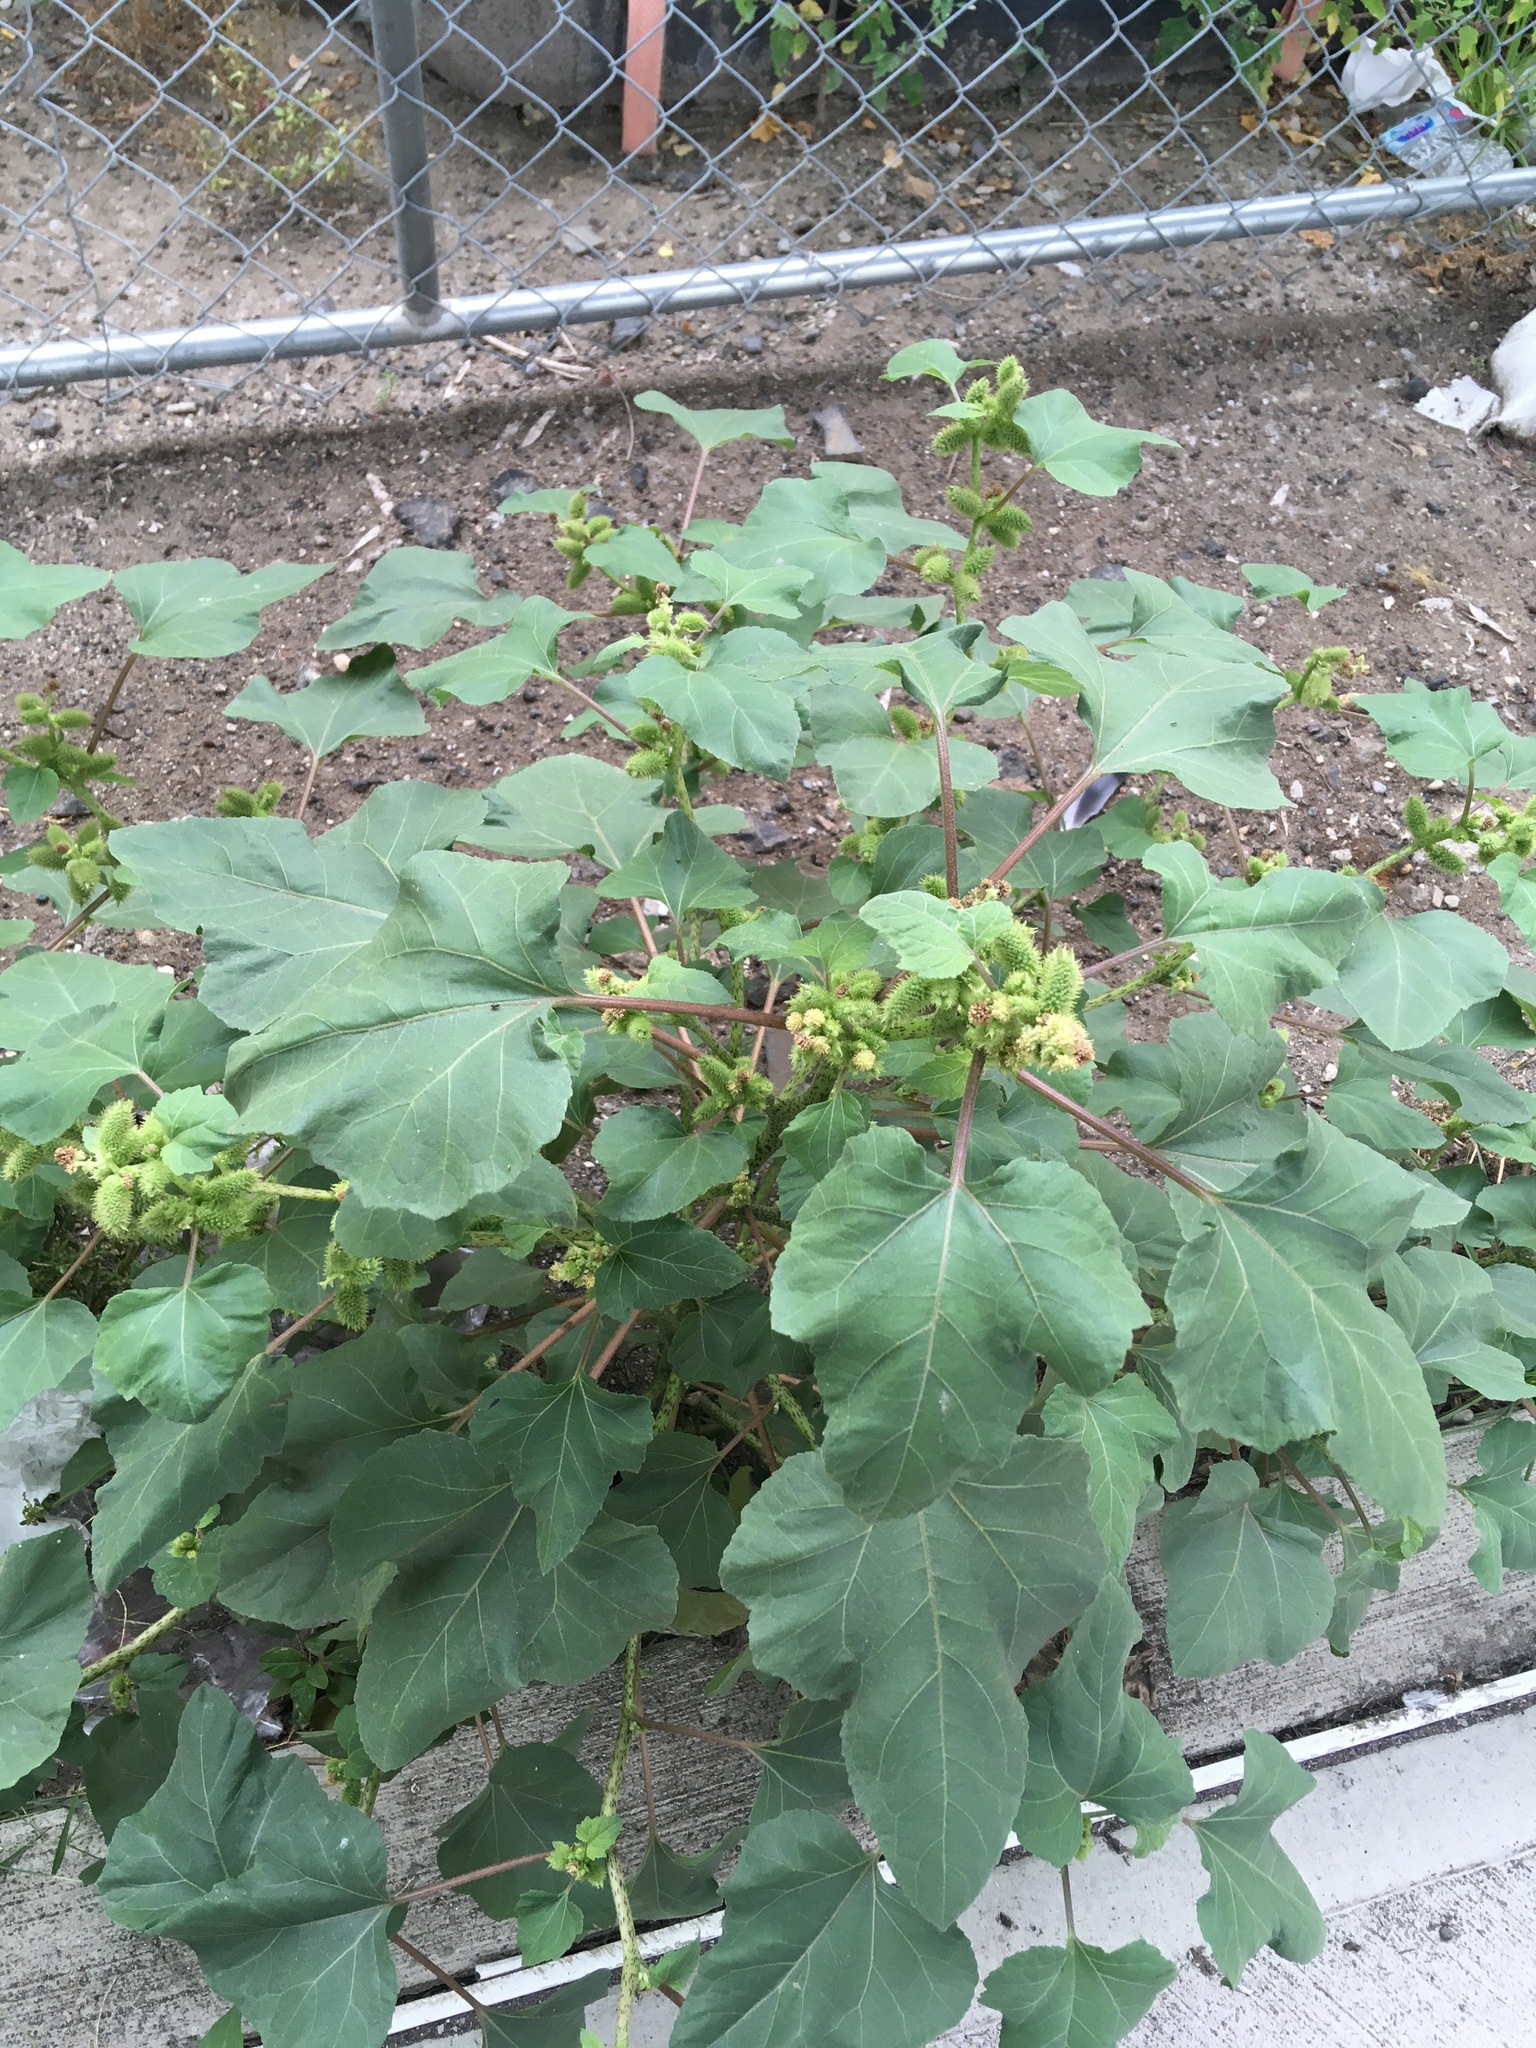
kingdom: Plantae
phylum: Tracheophyta
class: Magnoliopsida
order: Asterales
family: Asteraceae
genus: Xanthium
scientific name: Xanthium strumarium
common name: Rough cocklebur
